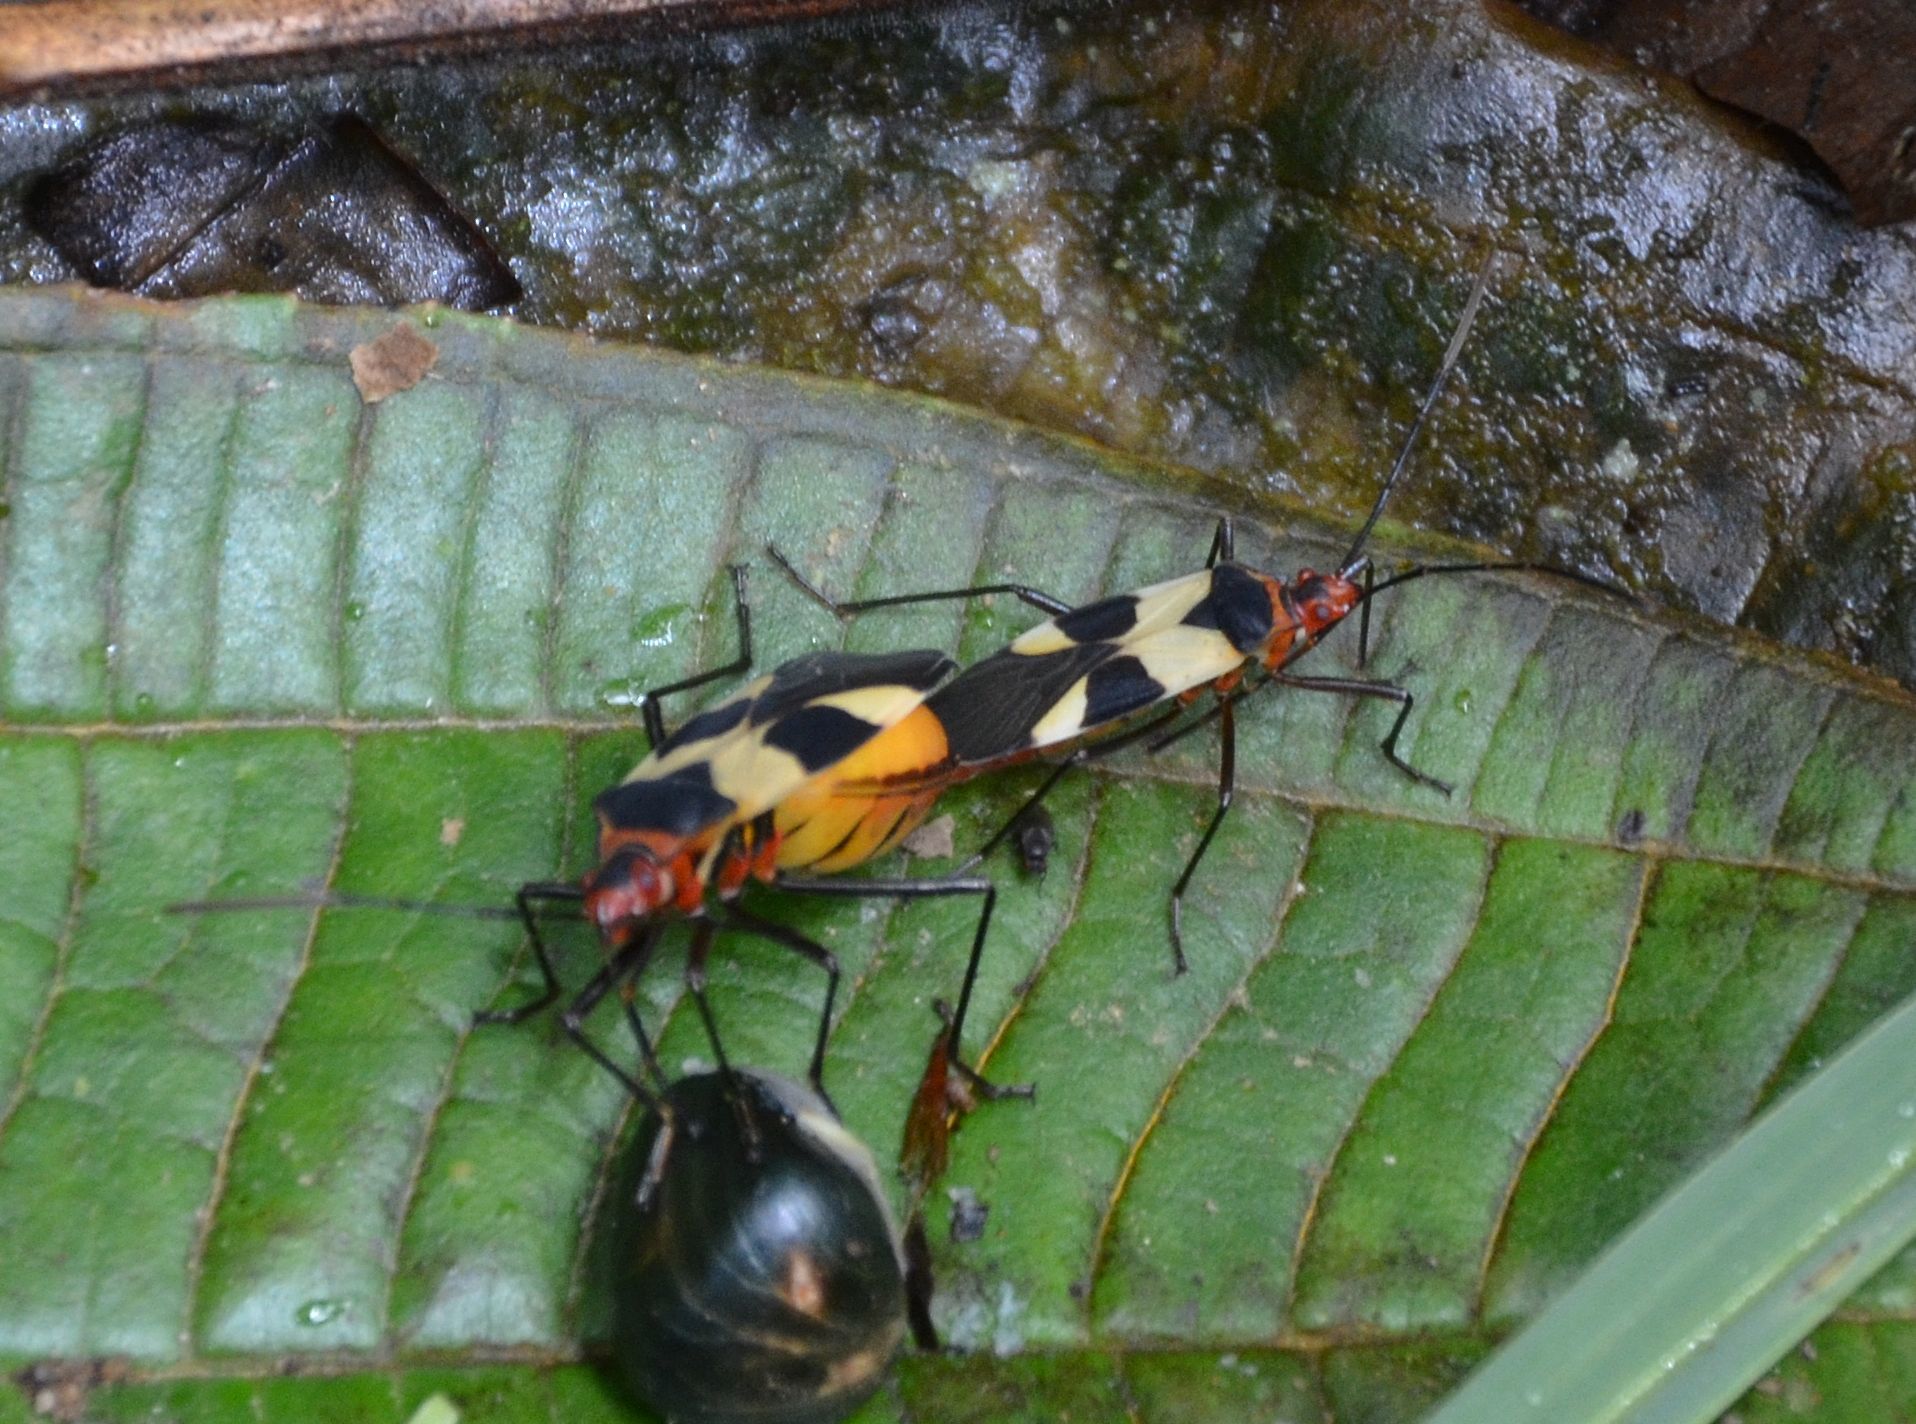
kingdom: Animalia
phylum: Arthropoda
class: Insecta
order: Hemiptera
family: Pyrrhocoridae
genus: Dysdercus
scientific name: Dysdercus lunulatus
